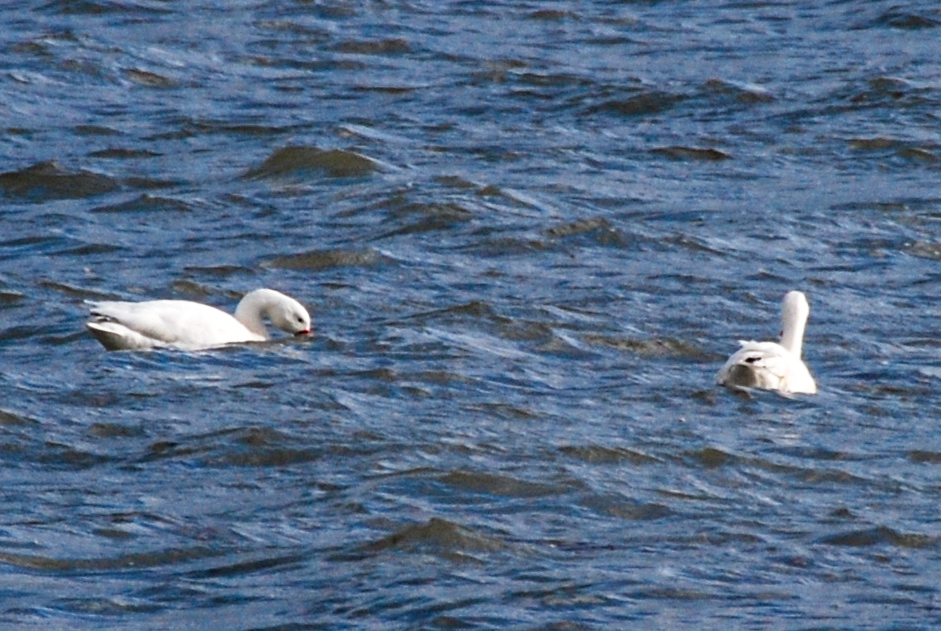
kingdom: Animalia
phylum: Chordata
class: Aves
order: Anseriformes
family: Anatidae
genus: Coscoroba
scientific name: Coscoroba coscoroba
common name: Coscoroba swan
